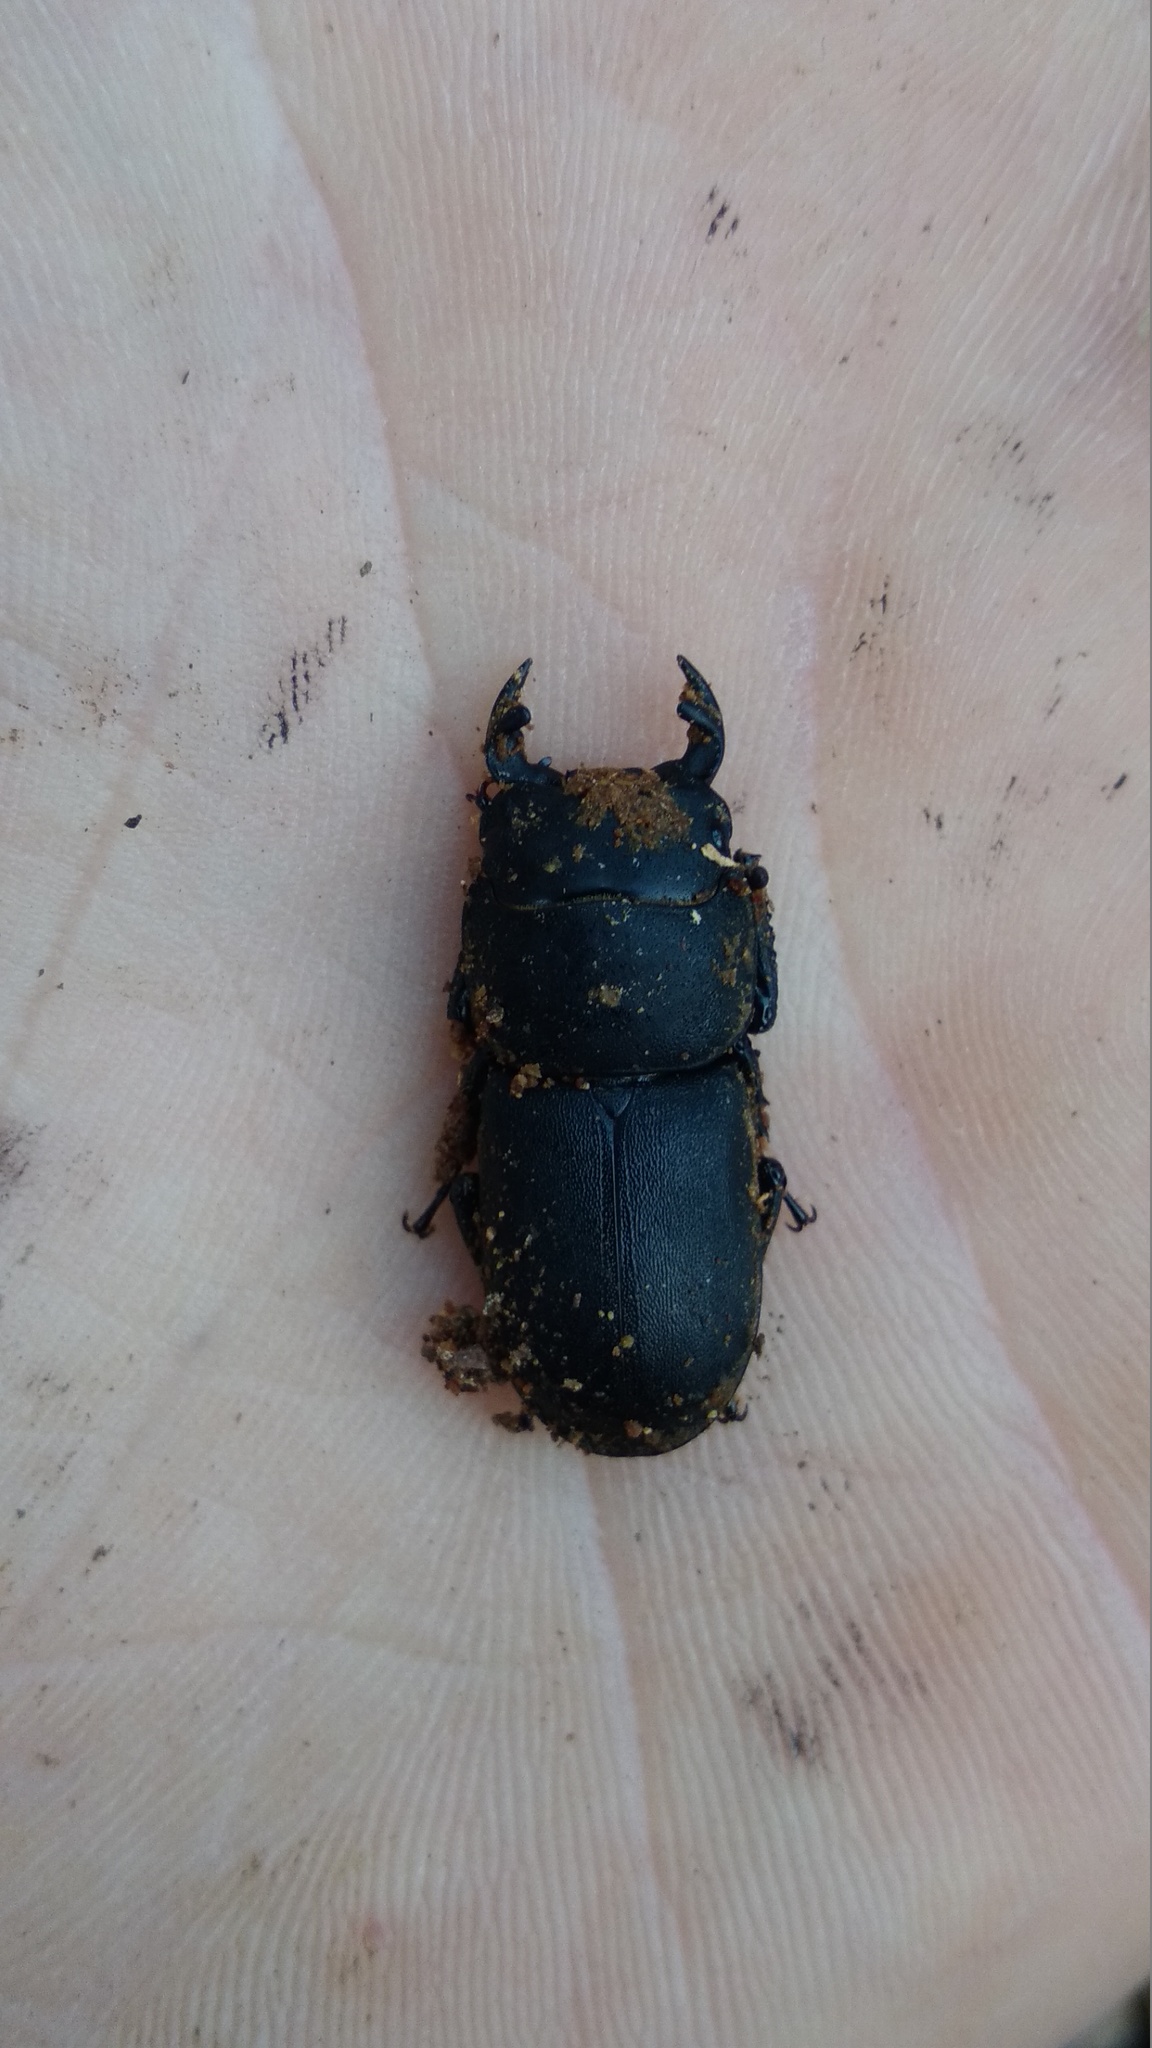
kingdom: Animalia
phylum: Arthropoda
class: Insecta
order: Coleoptera
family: Lucanidae
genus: Dorcus
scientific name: Dorcus parallelipipedus
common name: Lesser stag beetle
